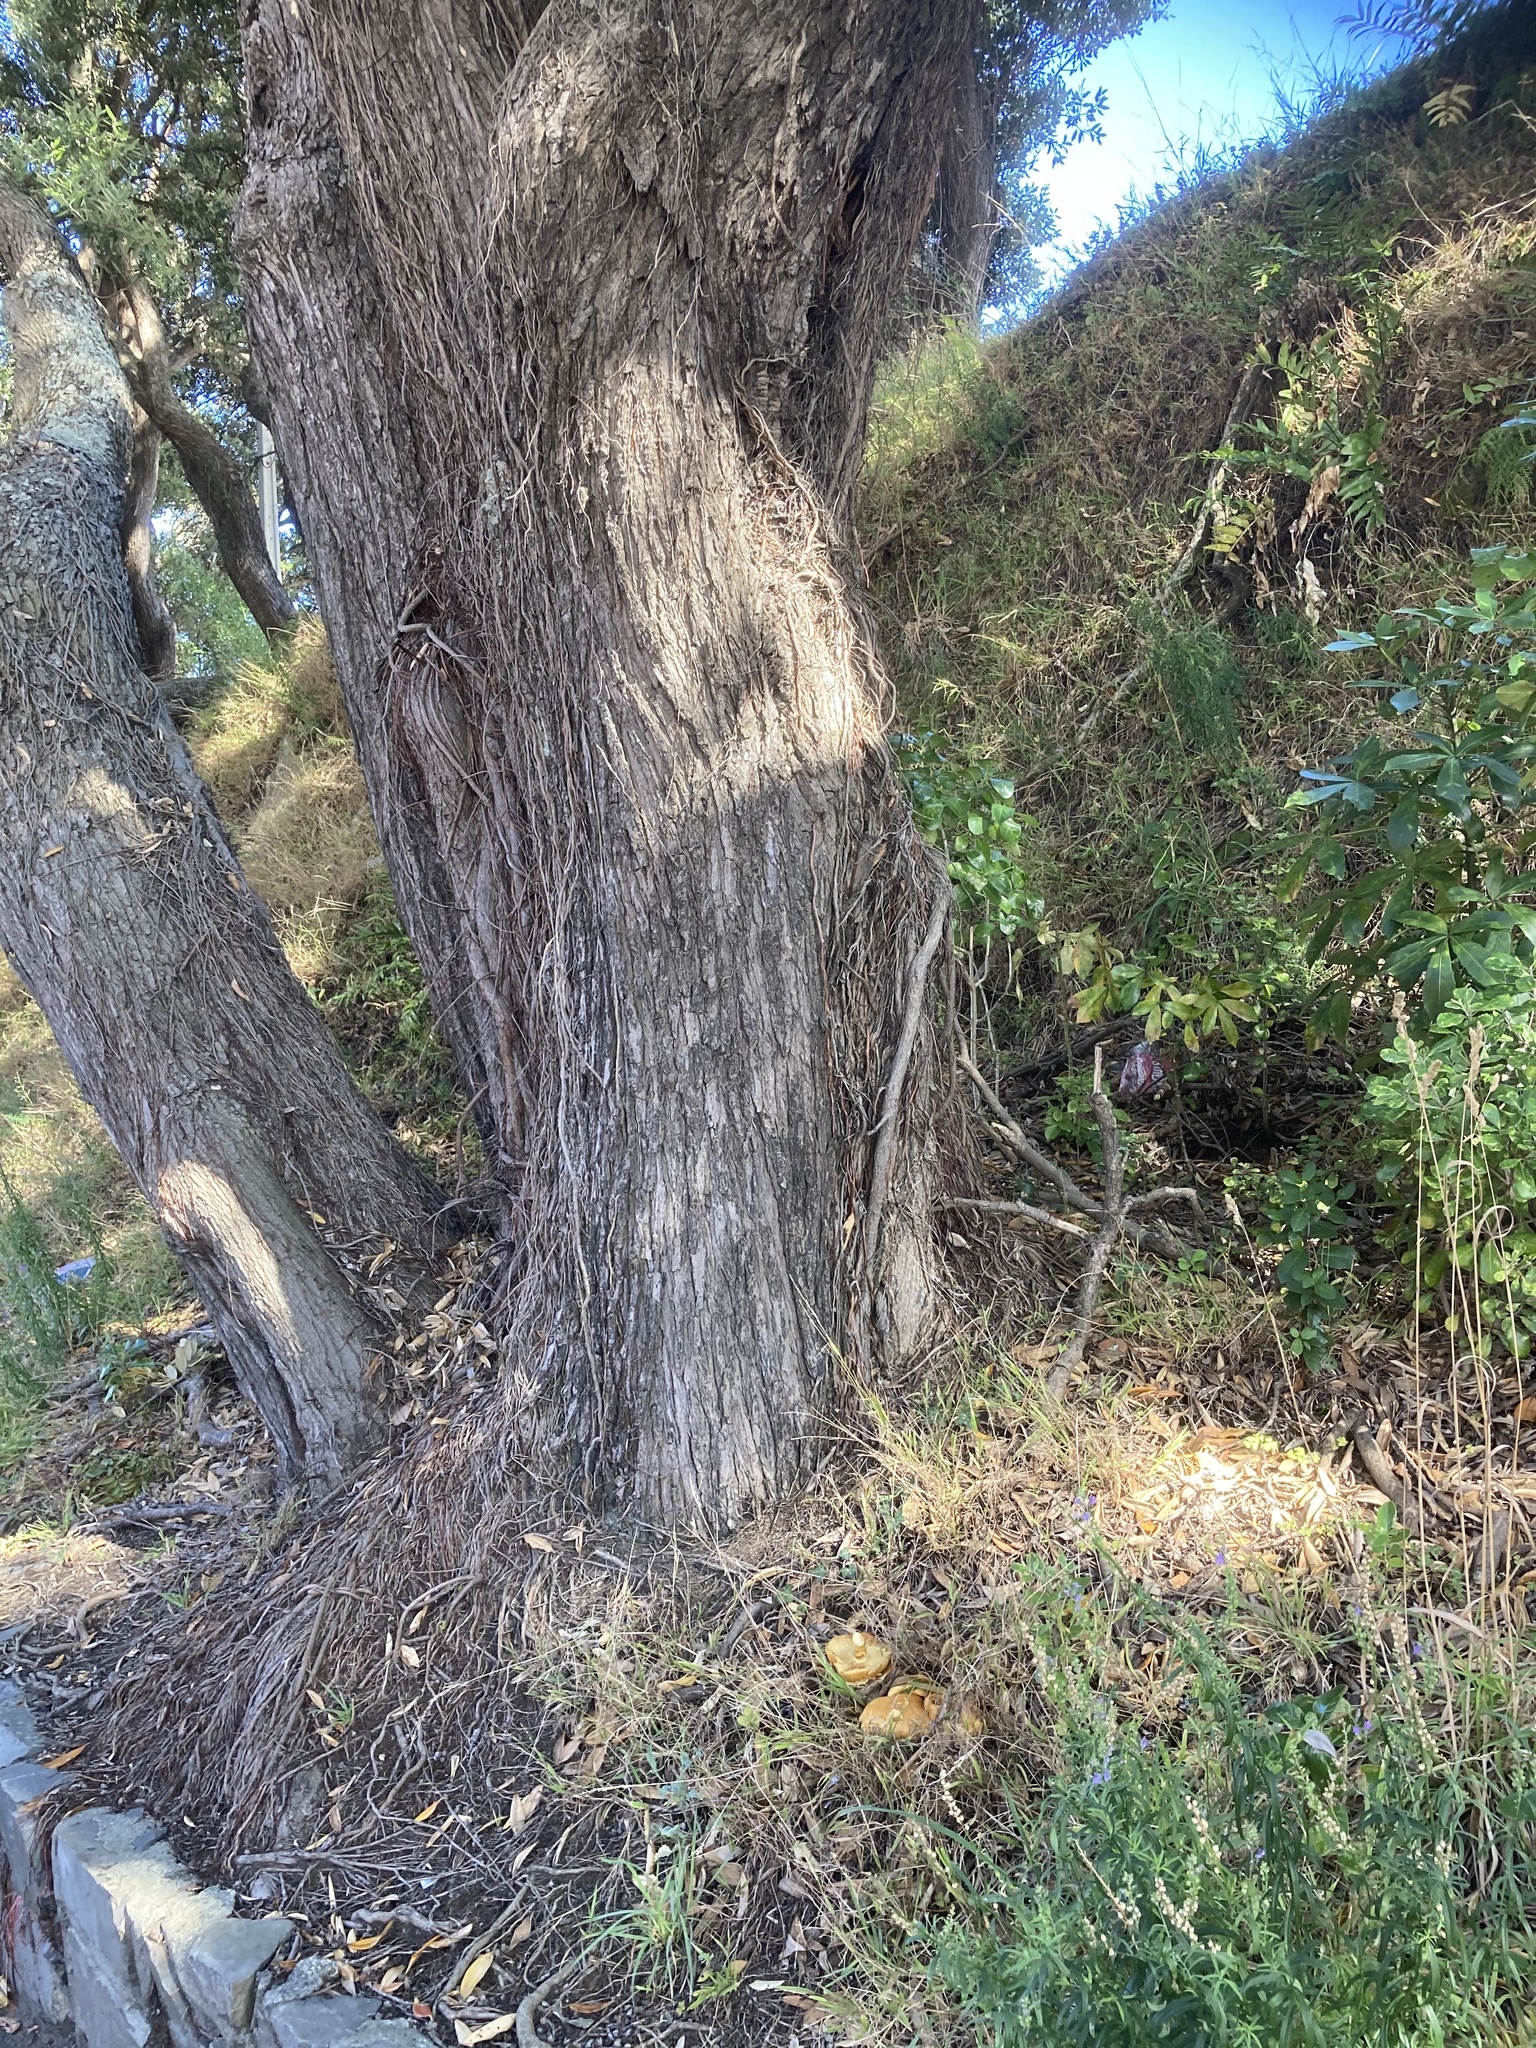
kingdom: Fungi
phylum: Basidiomycota
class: Agaricomycetes
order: Agaricales
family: Hymenogastraceae
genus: Gymnopilus
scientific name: Gymnopilus junonius
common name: Spectacular rustgill
